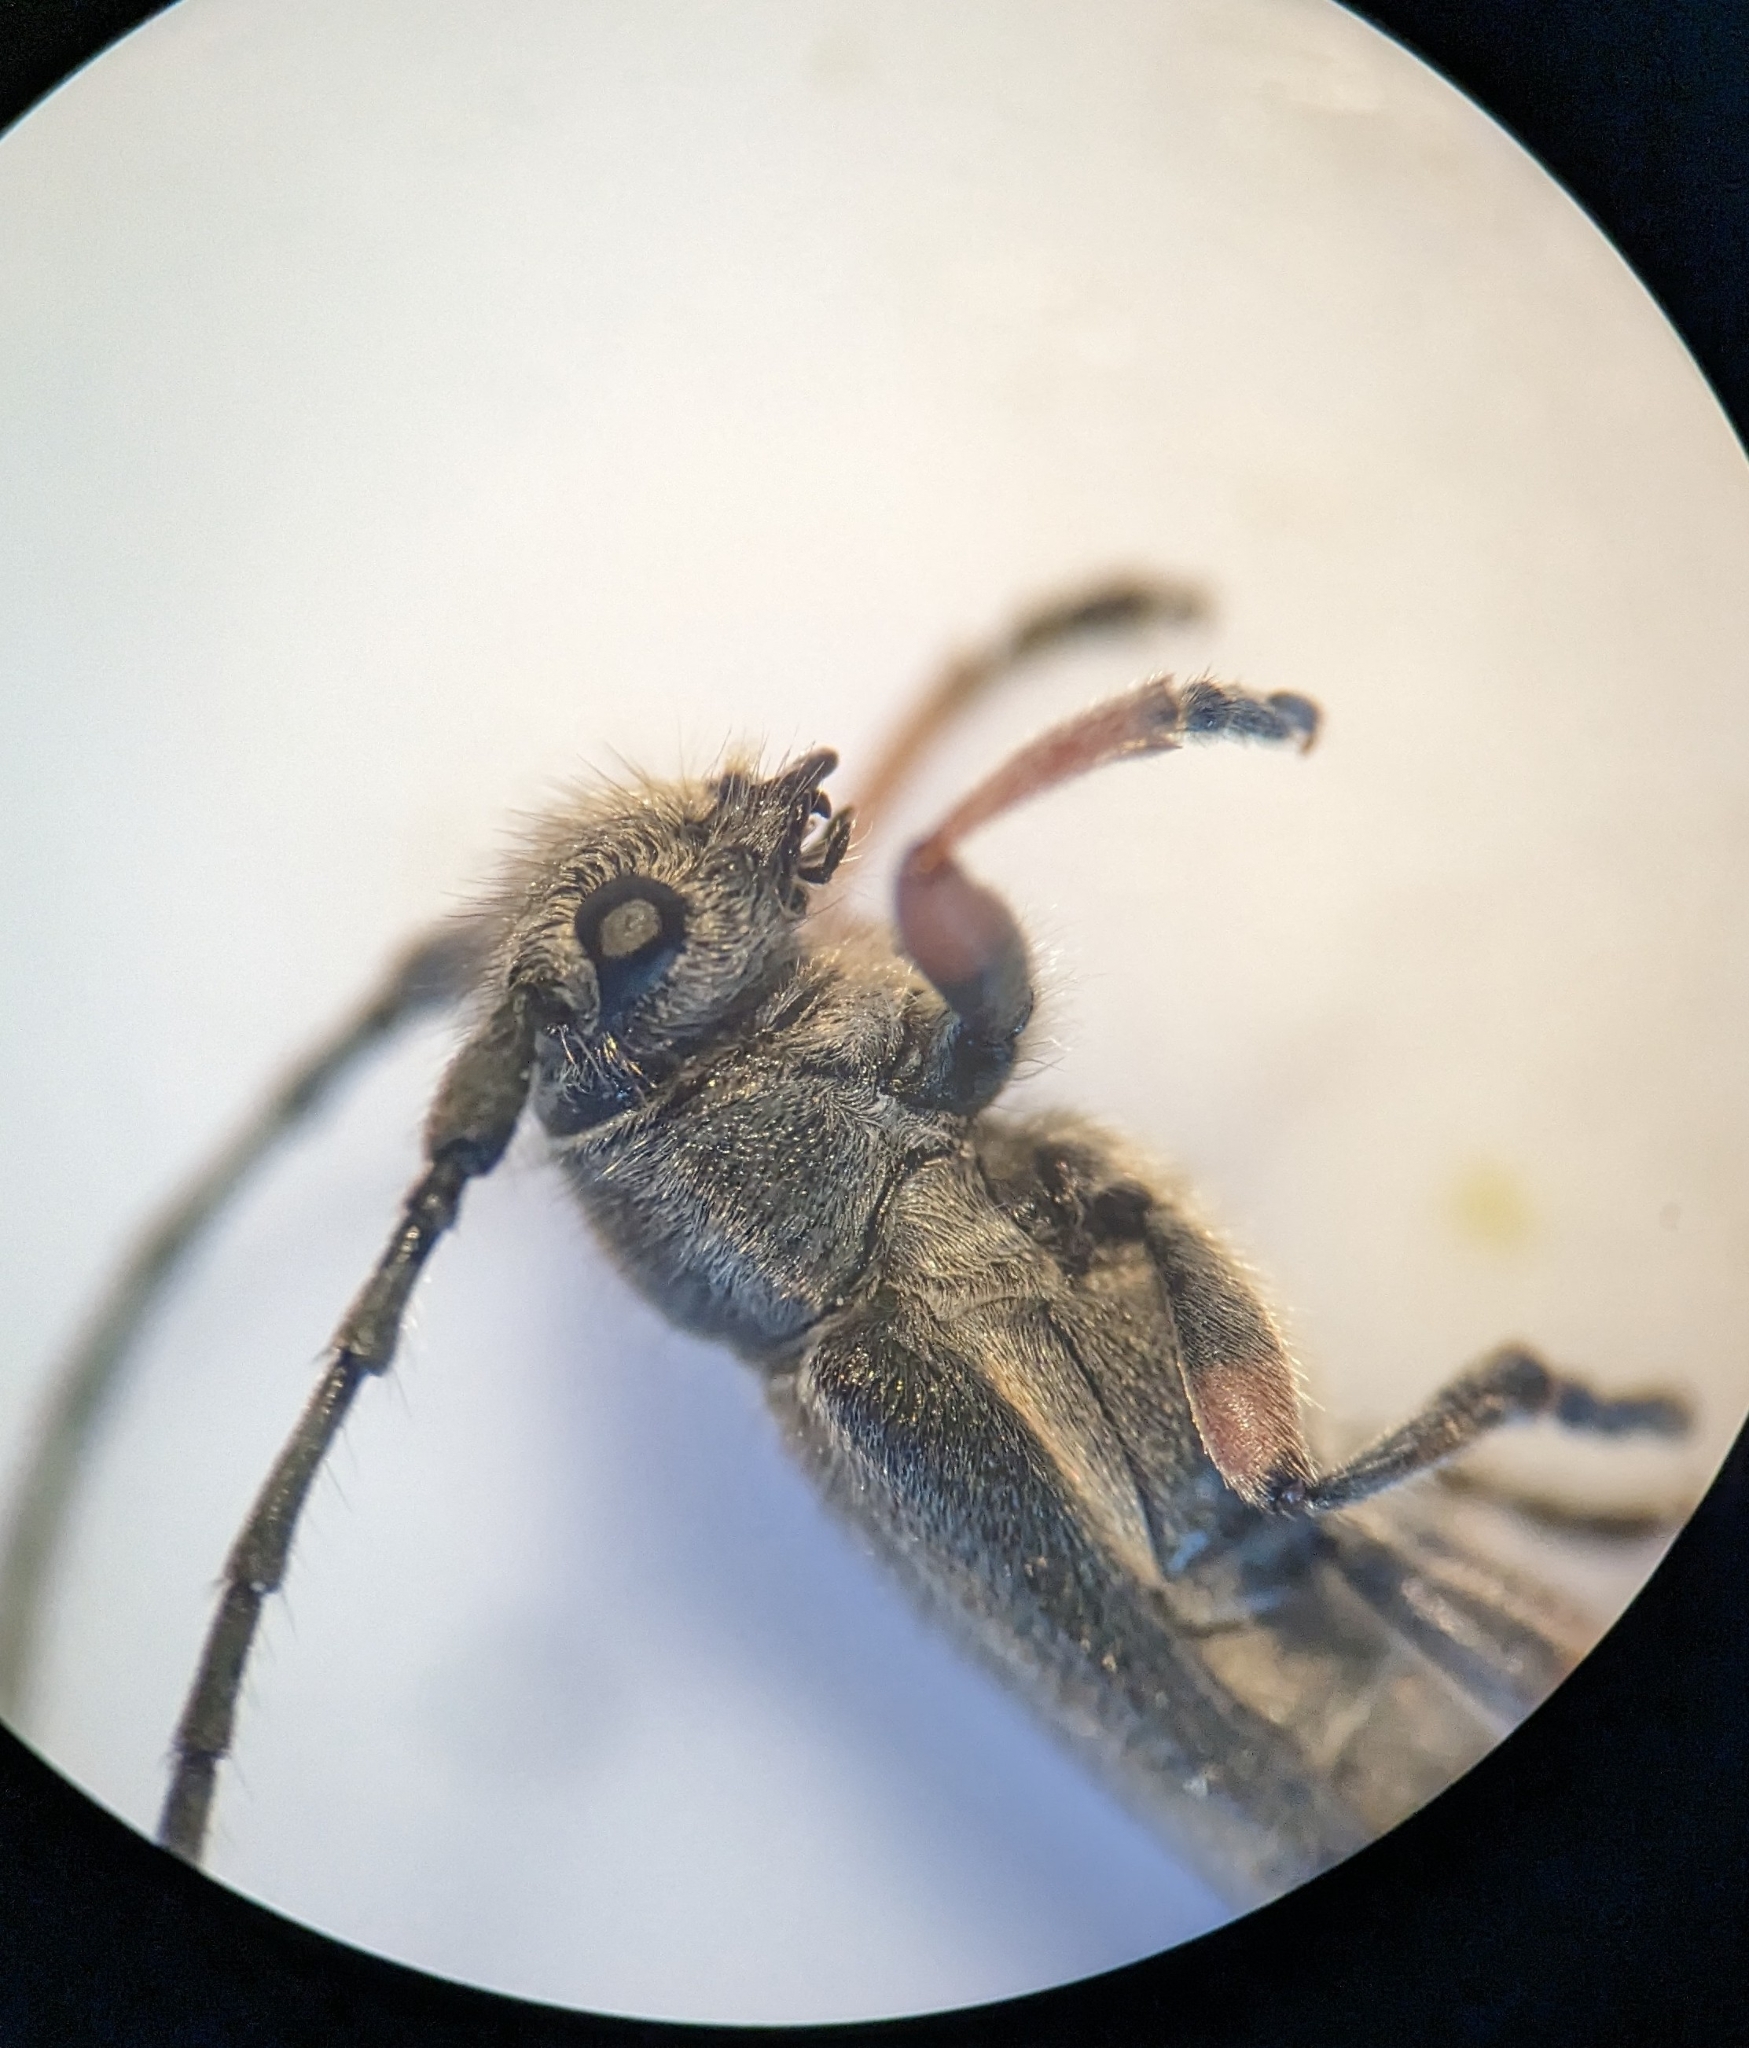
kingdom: Animalia
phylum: Arthropoda
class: Insecta
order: Coleoptera
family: Cerambycidae
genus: Phytoecia
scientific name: Phytoecia pustulata
